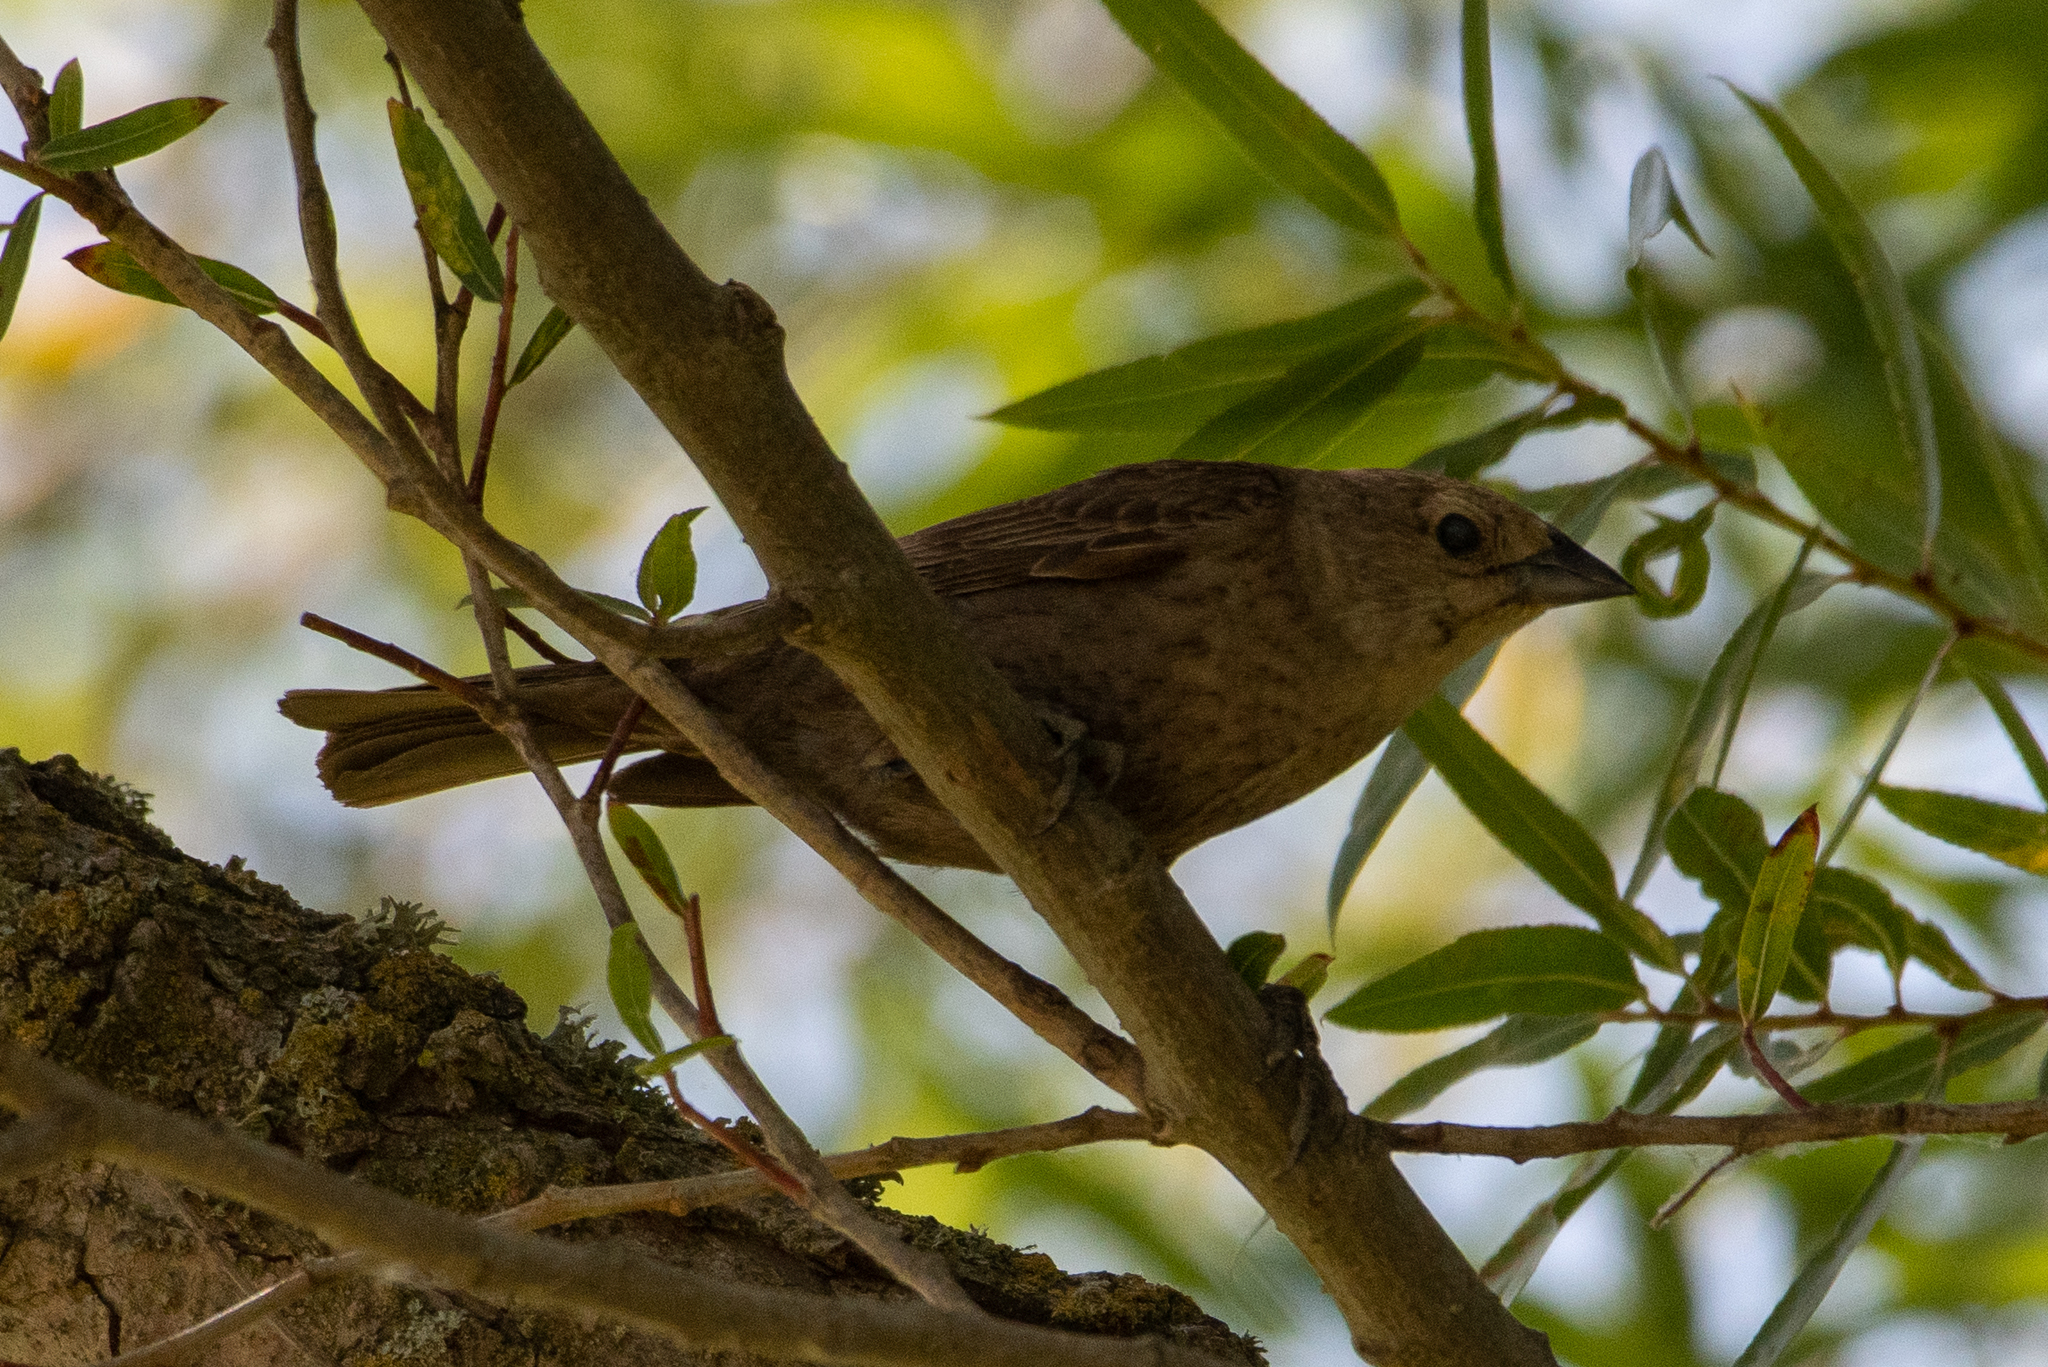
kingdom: Animalia
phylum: Chordata
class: Aves
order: Passeriformes
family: Icteridae
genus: Molothrus
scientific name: Molothrus ater
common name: Brown-headed cowbird
